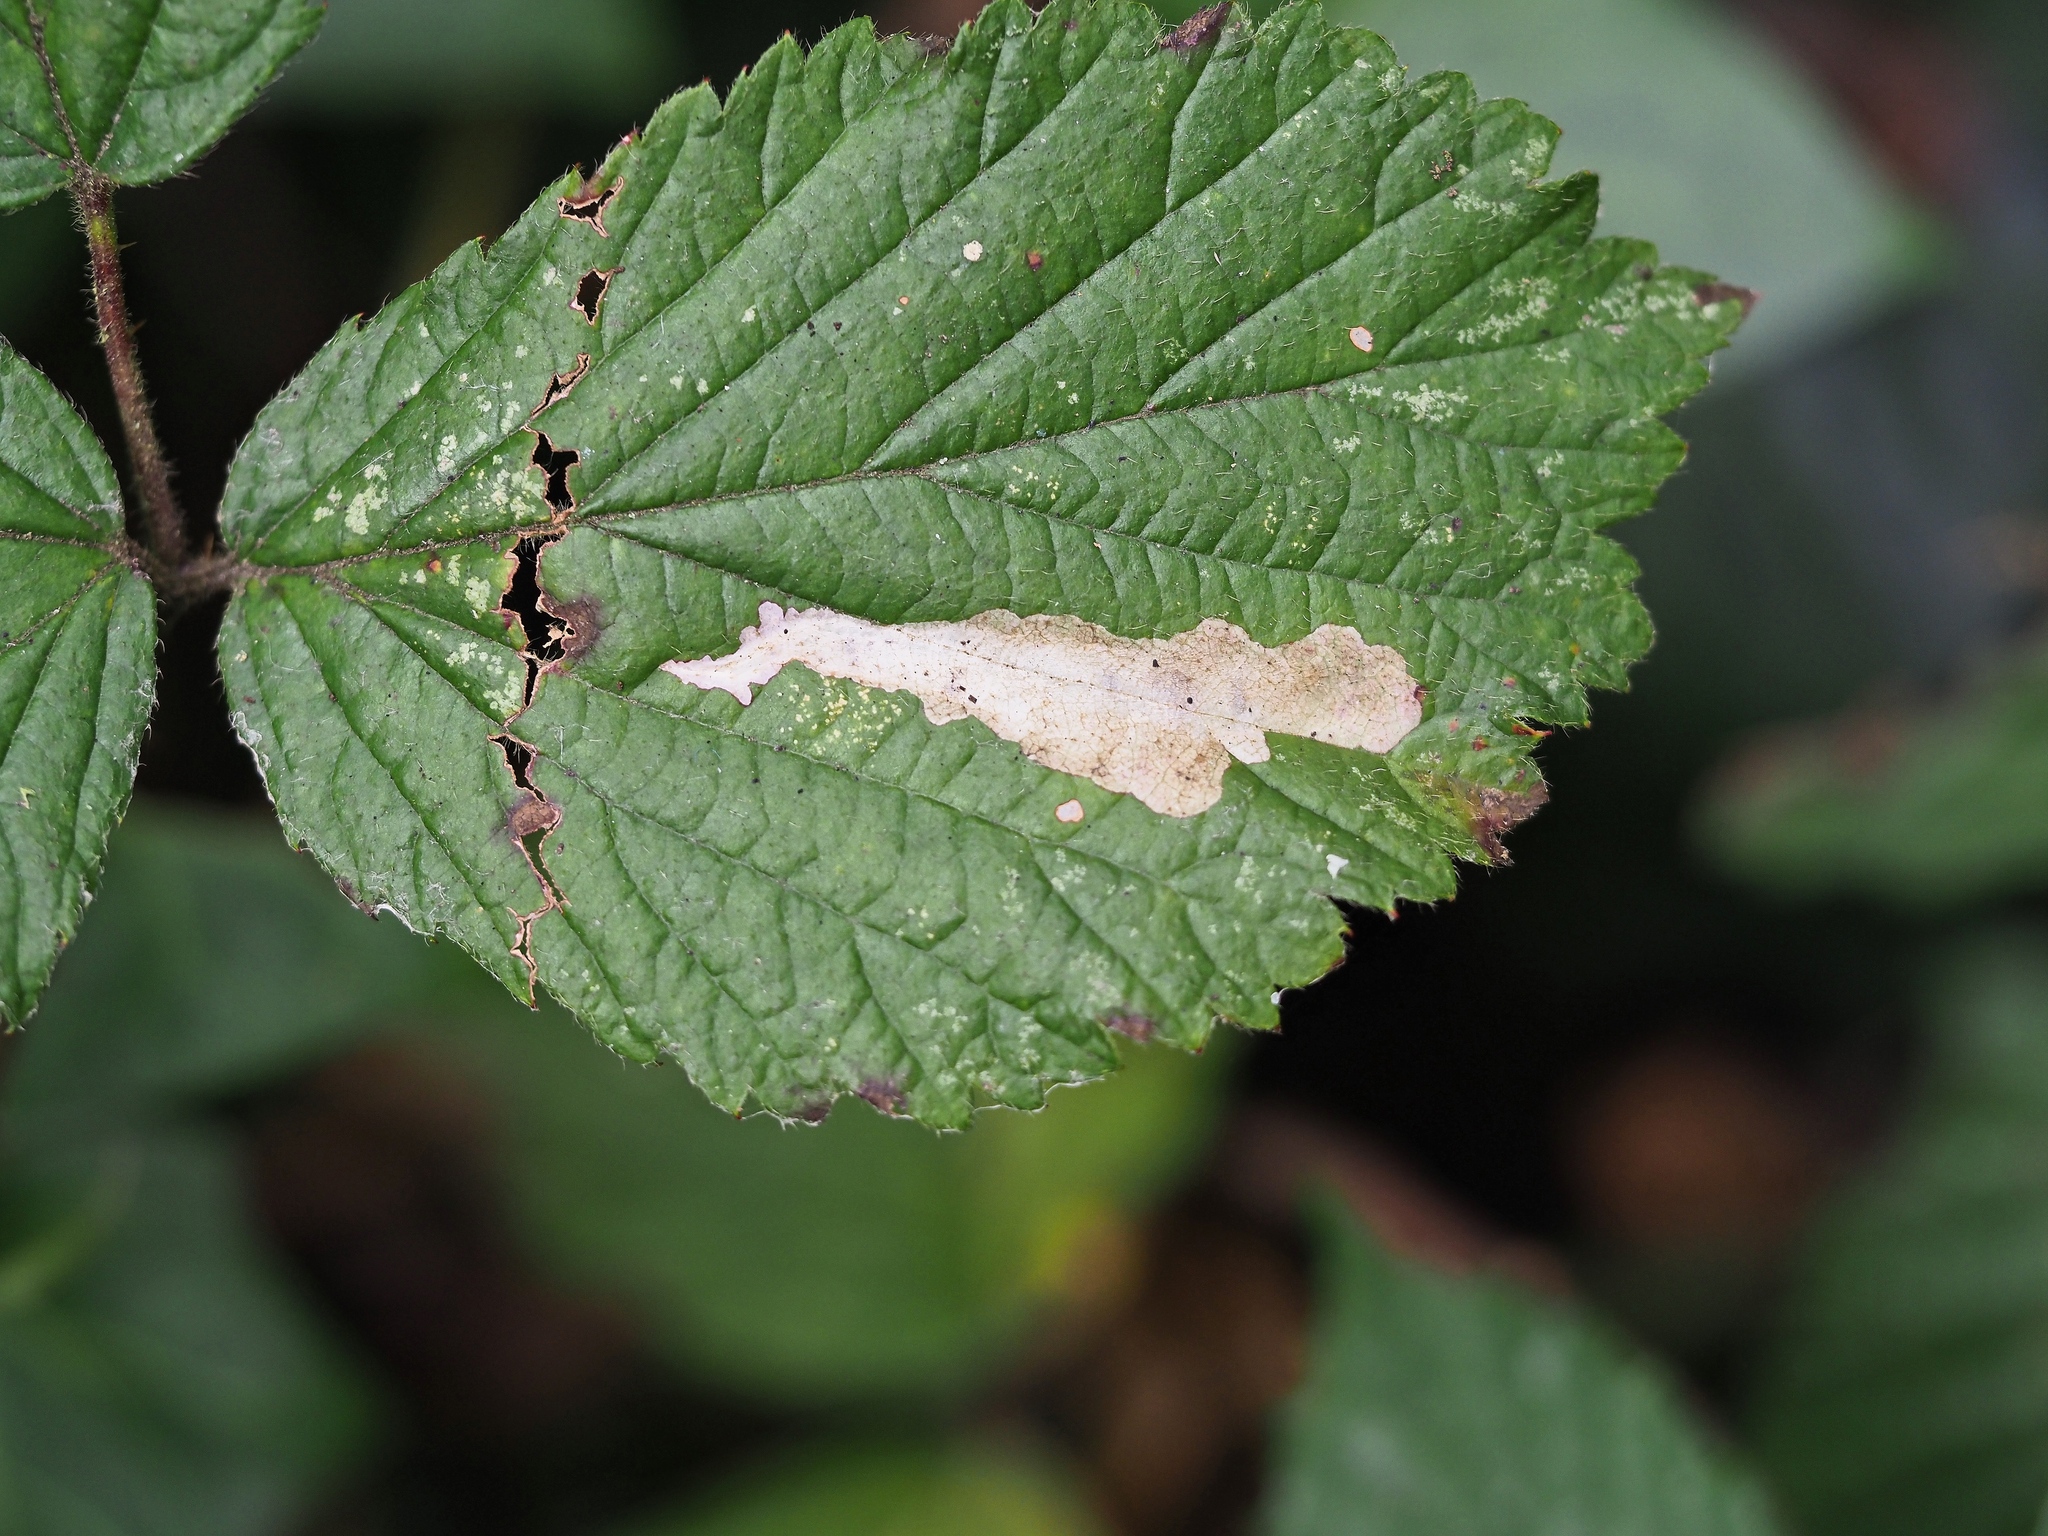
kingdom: Animalia
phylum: Arthropoda
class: Insecta
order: Lepidoptera
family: Tischeriidae
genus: Coptotriche
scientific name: Coptotriche marginea
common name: Bordered carl
